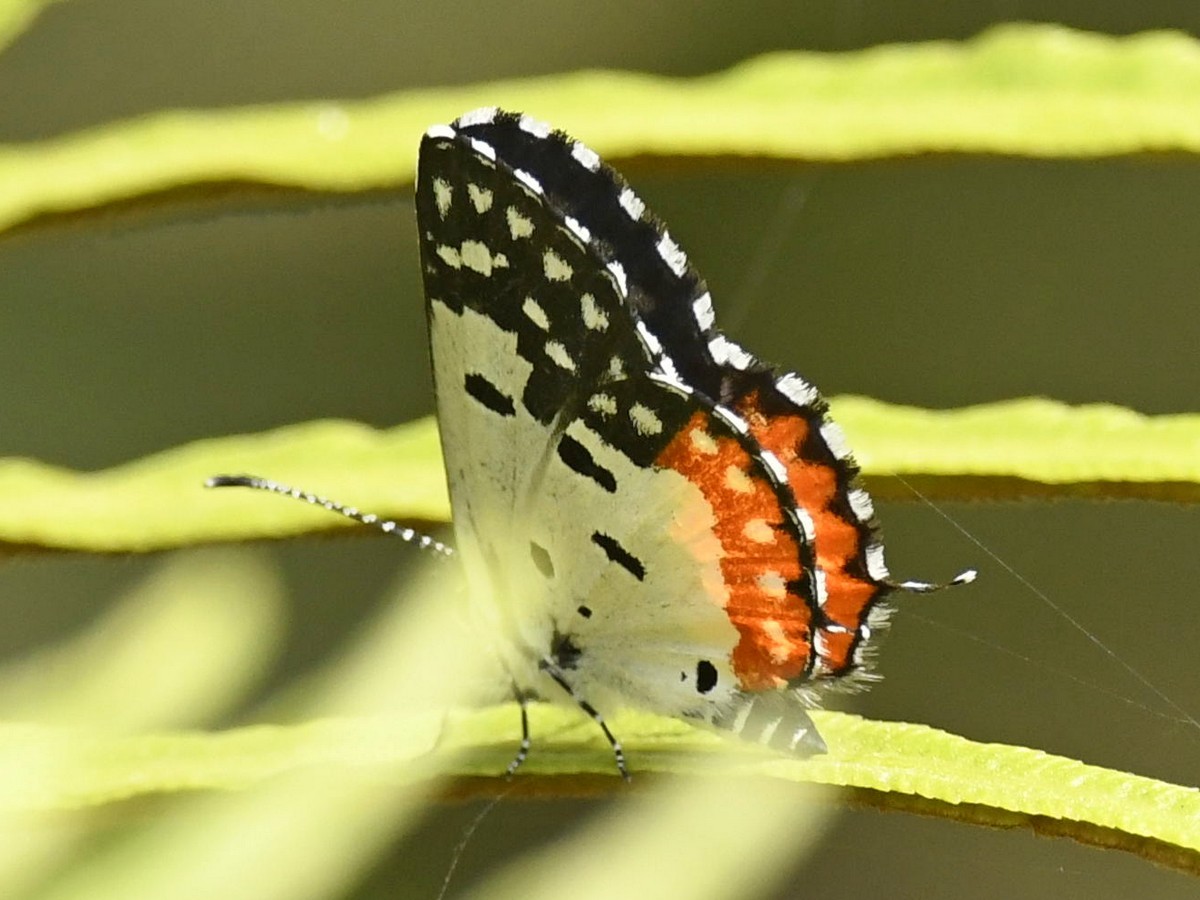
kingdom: Animalia
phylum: Arthropoda
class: Insecta
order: Lepidoptera
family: Lycaenidae
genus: Talicada
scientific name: Talicada nyseus
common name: Red pierrot
